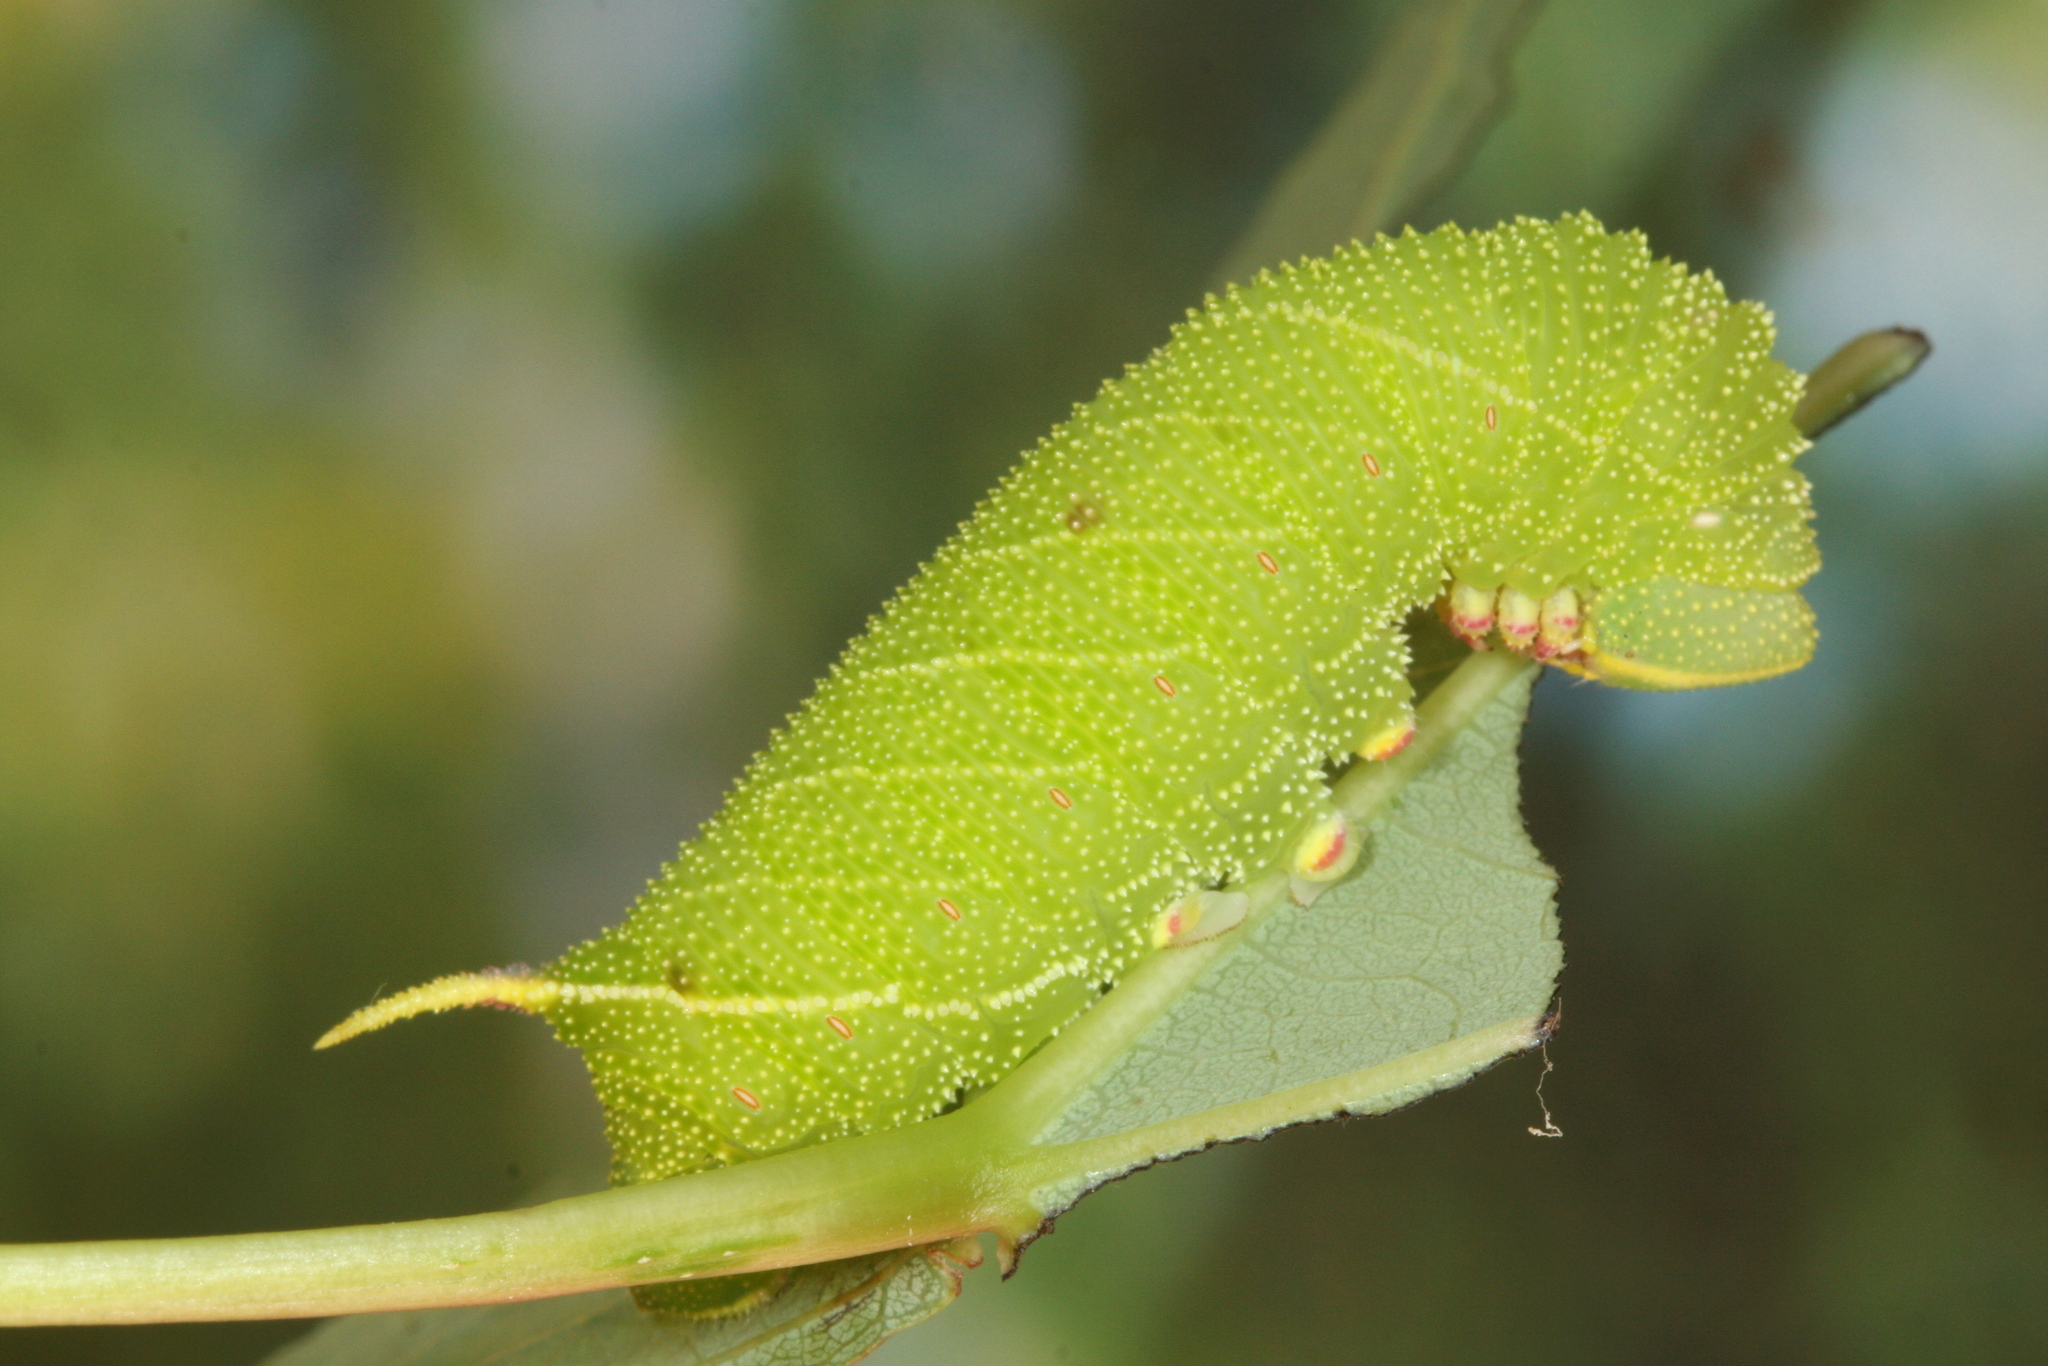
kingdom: Animalia
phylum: Arthropoda
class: Insecta
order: Lepidoptera
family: Sphingidae
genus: Laothoe
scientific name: Laothoe populi
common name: Poplar hawk-moth
